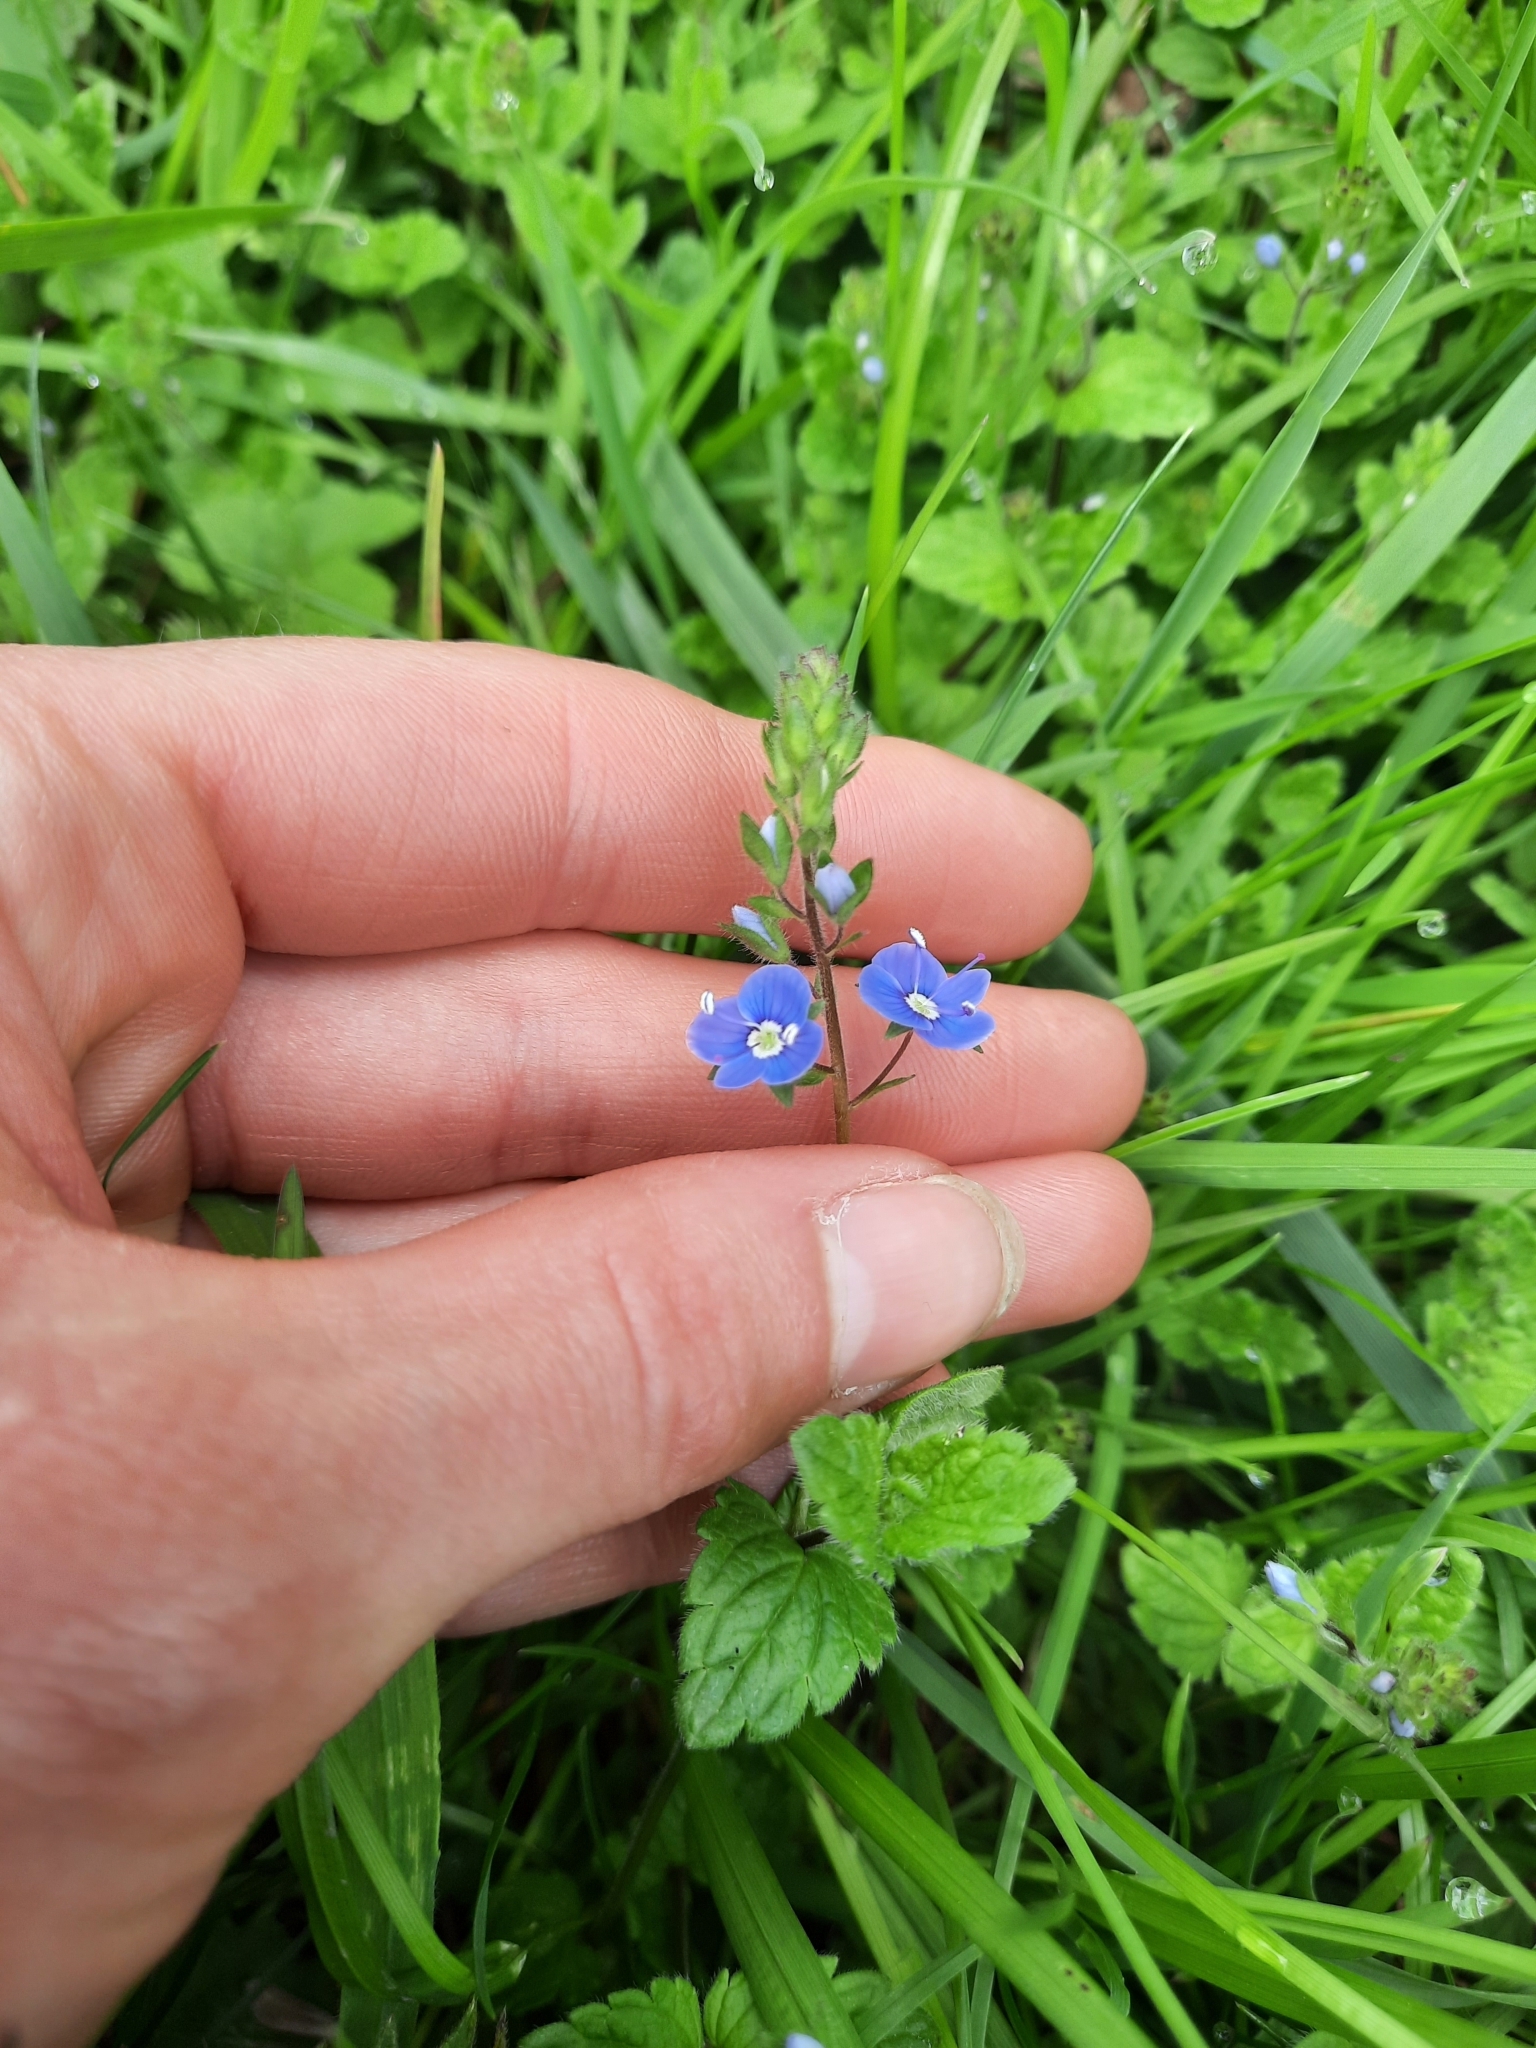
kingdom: Plantae
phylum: Tracheophyta
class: Magnoliopsida
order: Lamiales
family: Plantaginaceae
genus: Veronica
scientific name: Veronica chamaedrys
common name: Germander speedwell
